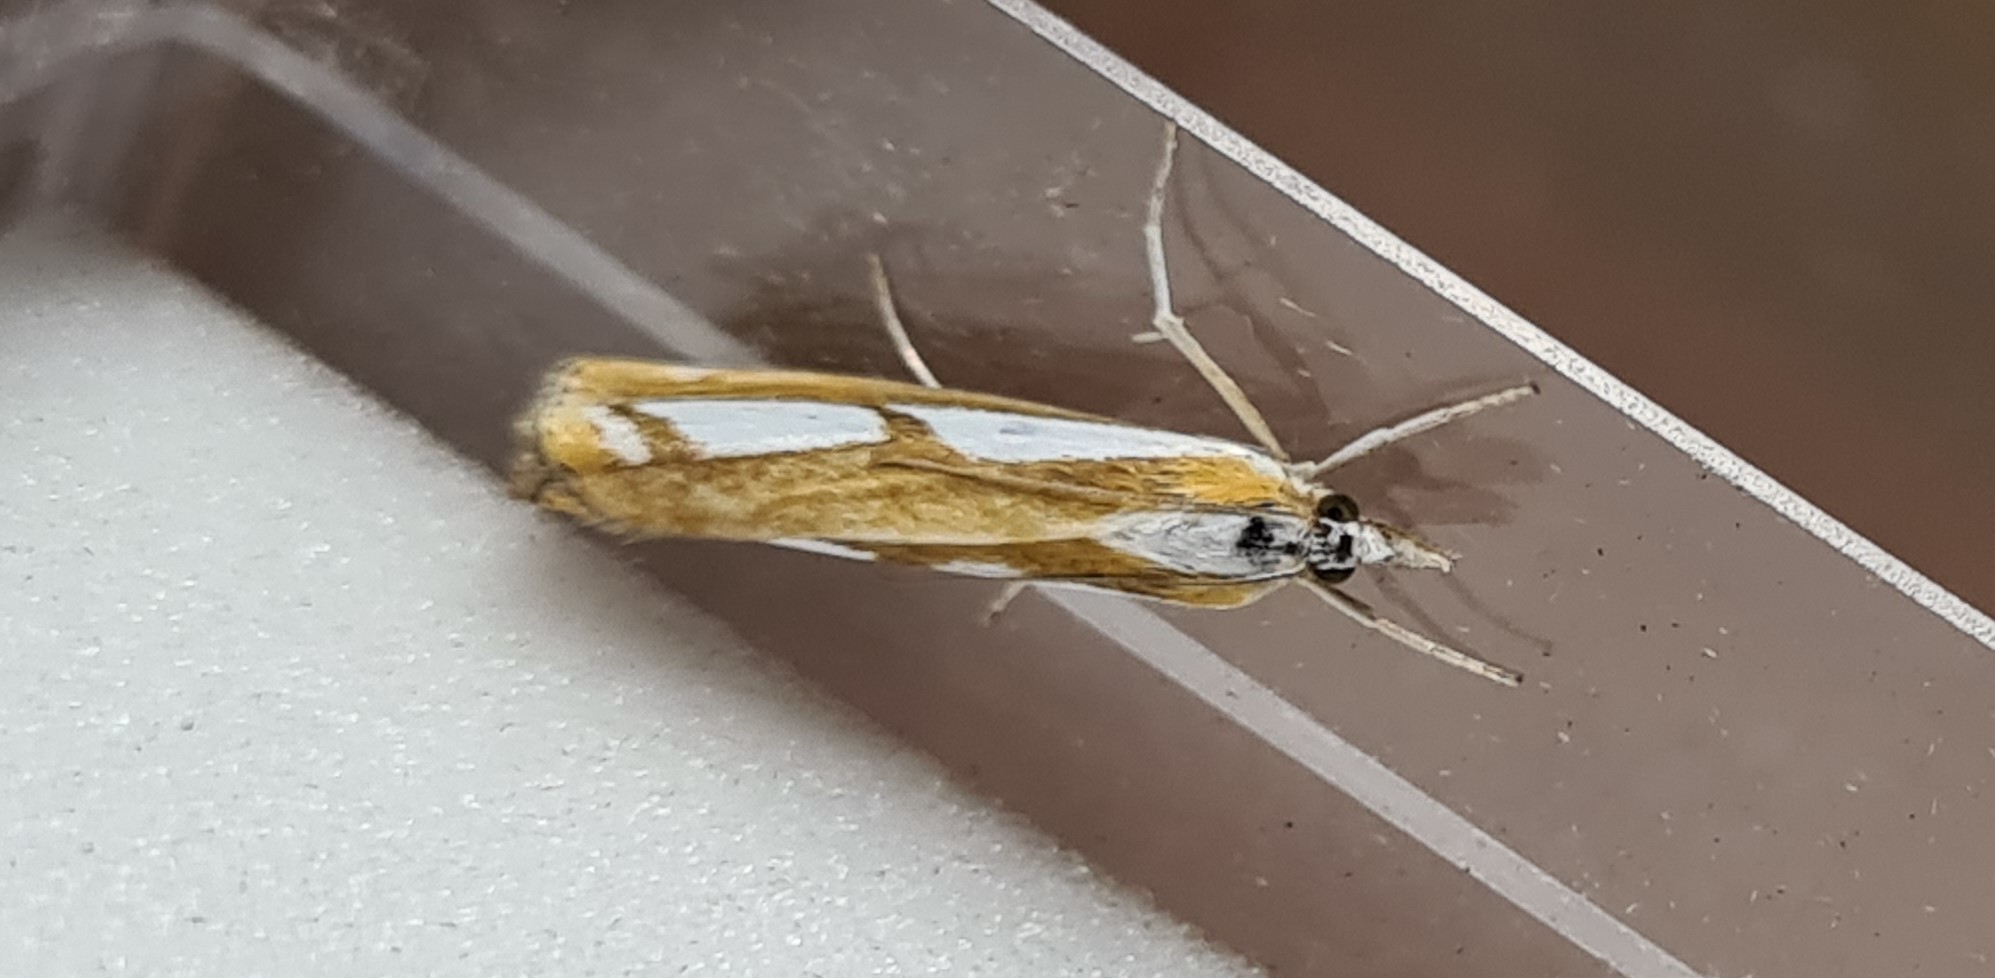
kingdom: Animalia
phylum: Arthropoda
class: Insecta
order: Lepidoptera
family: Crambidae
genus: Catoptria
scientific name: Catoptria
